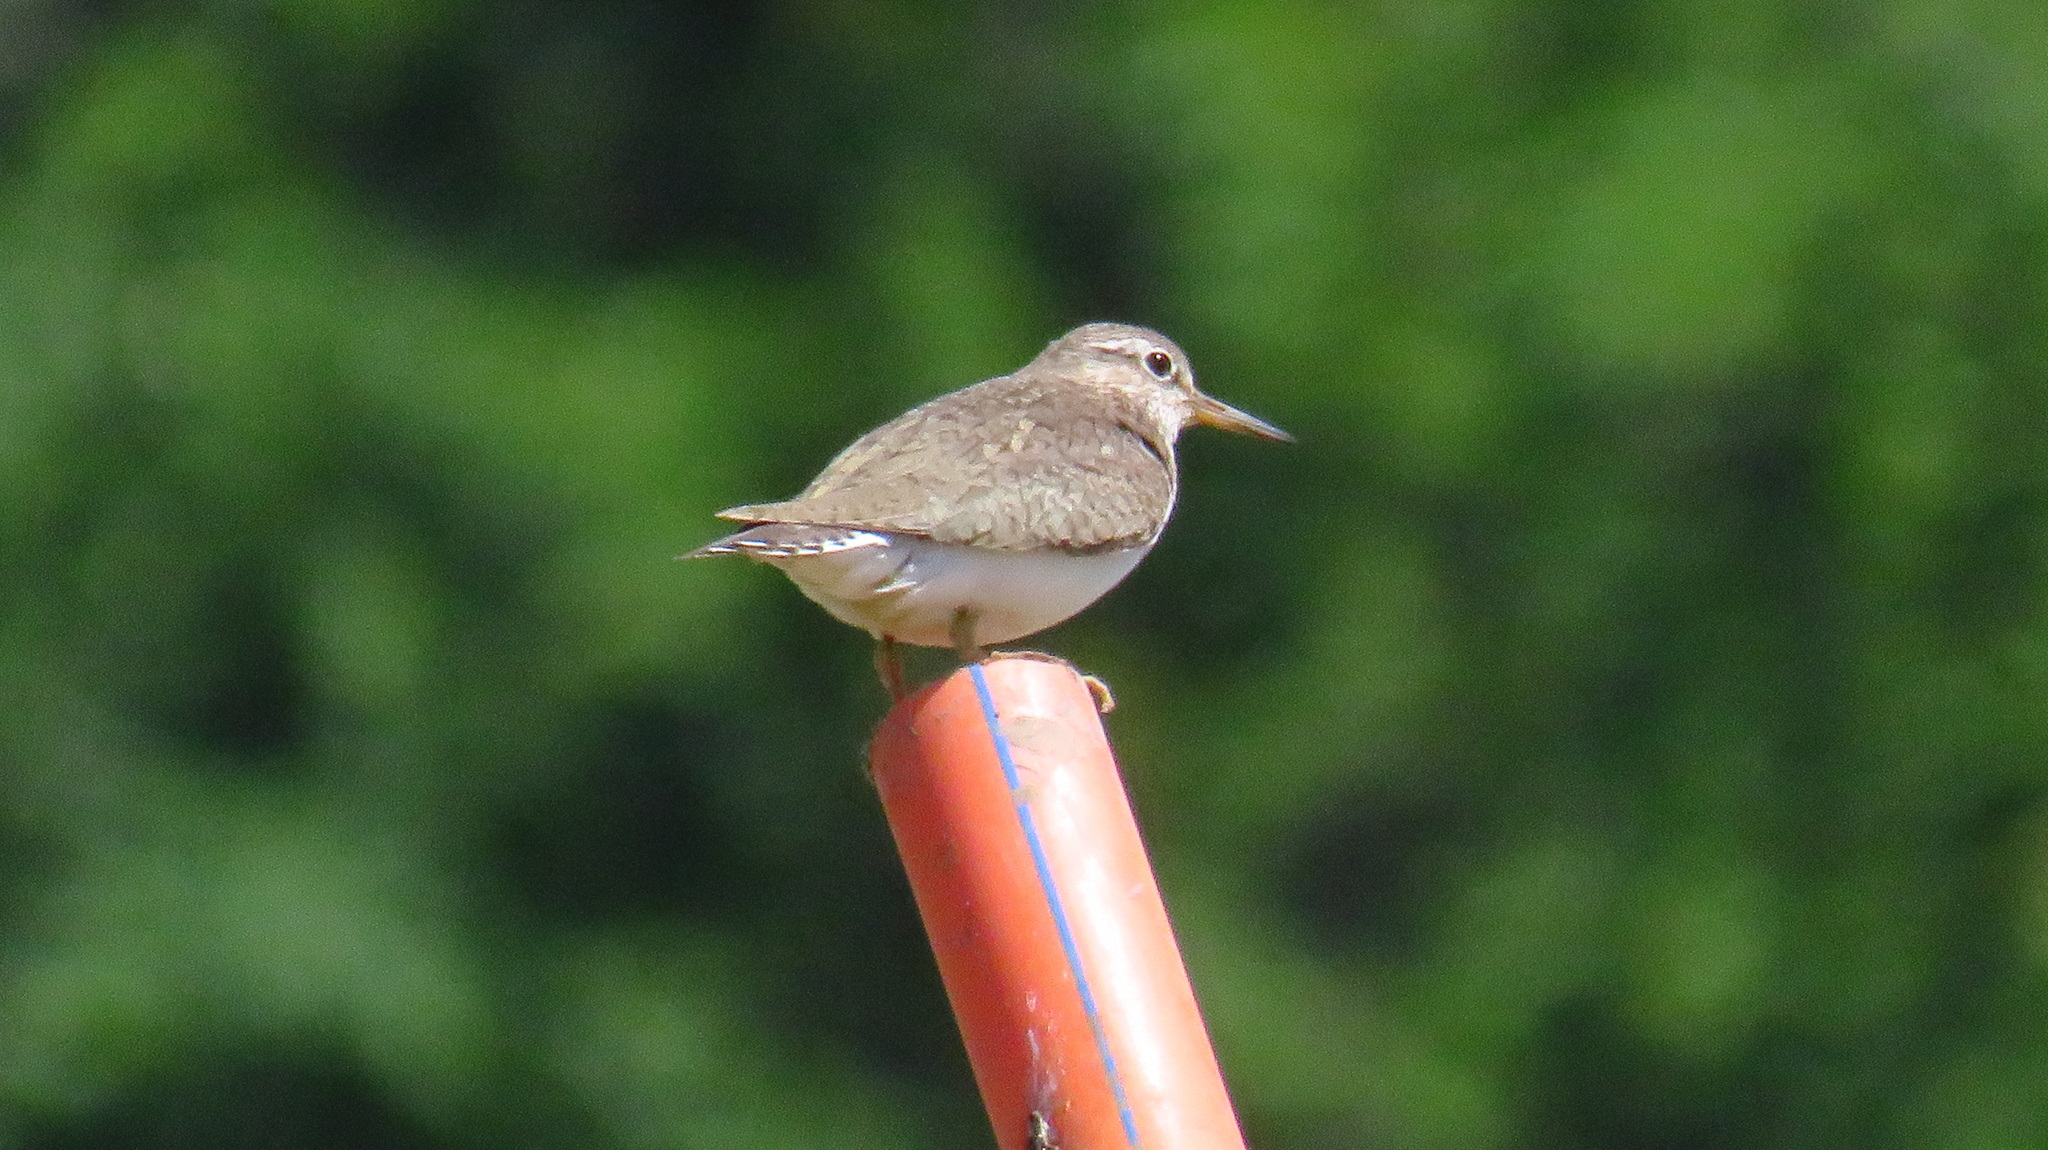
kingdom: Animalia
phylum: Chordata
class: Aves
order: Charadriiformes
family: Scolopacidae
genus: Actitis
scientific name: Actitis hypoleucos
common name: Common sandpiper
